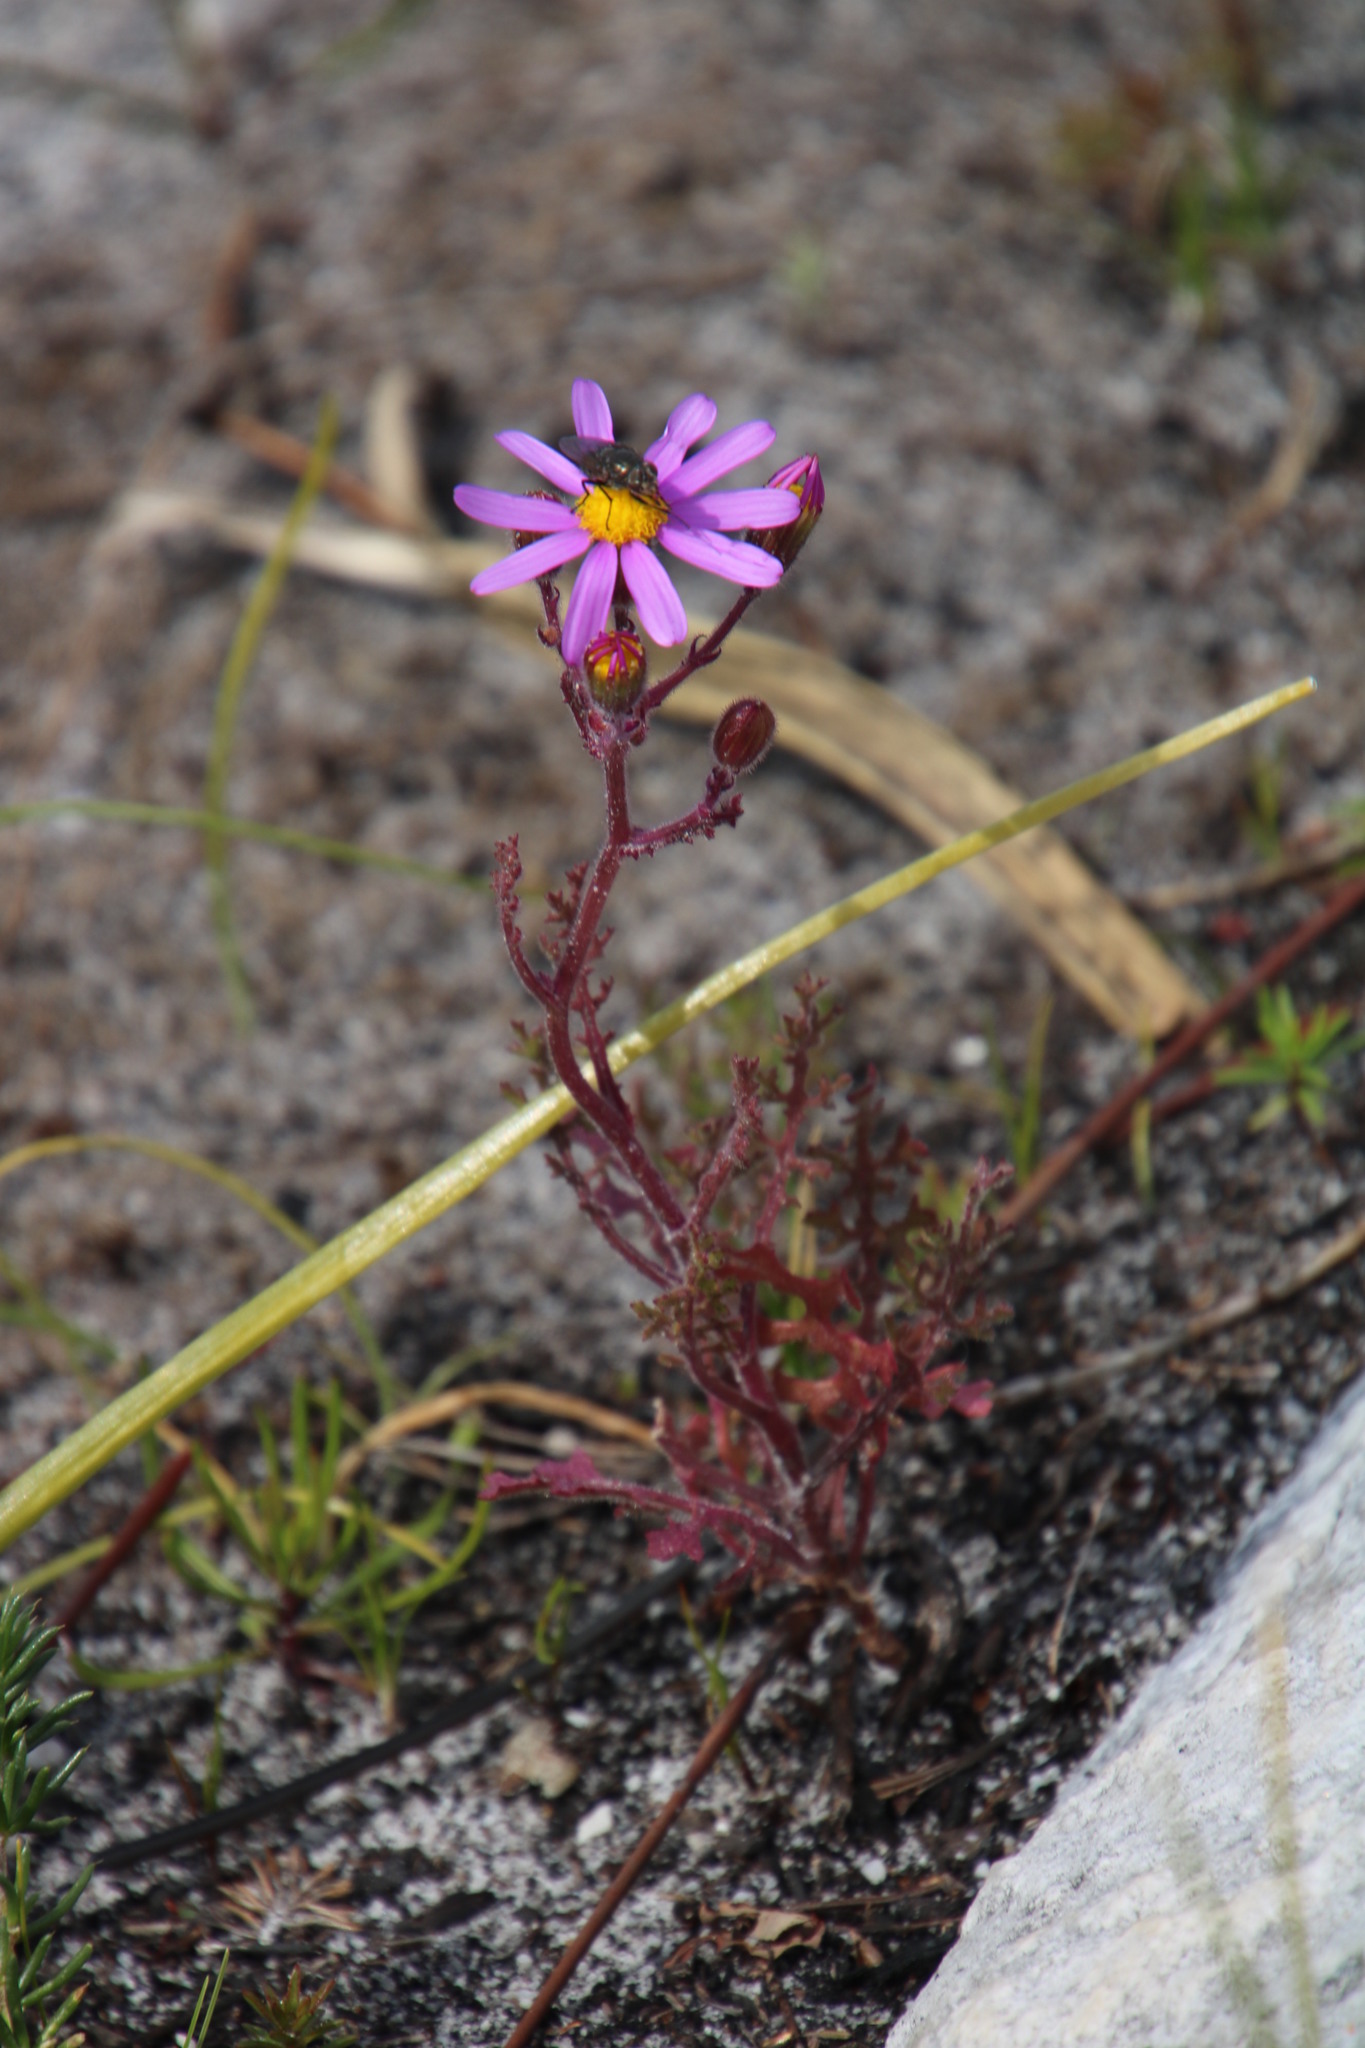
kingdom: Plantae
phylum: Tracheophyta
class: Magnoliopsida
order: Asterales
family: Asteraceae
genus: Senecio
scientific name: Senecio arenarius
